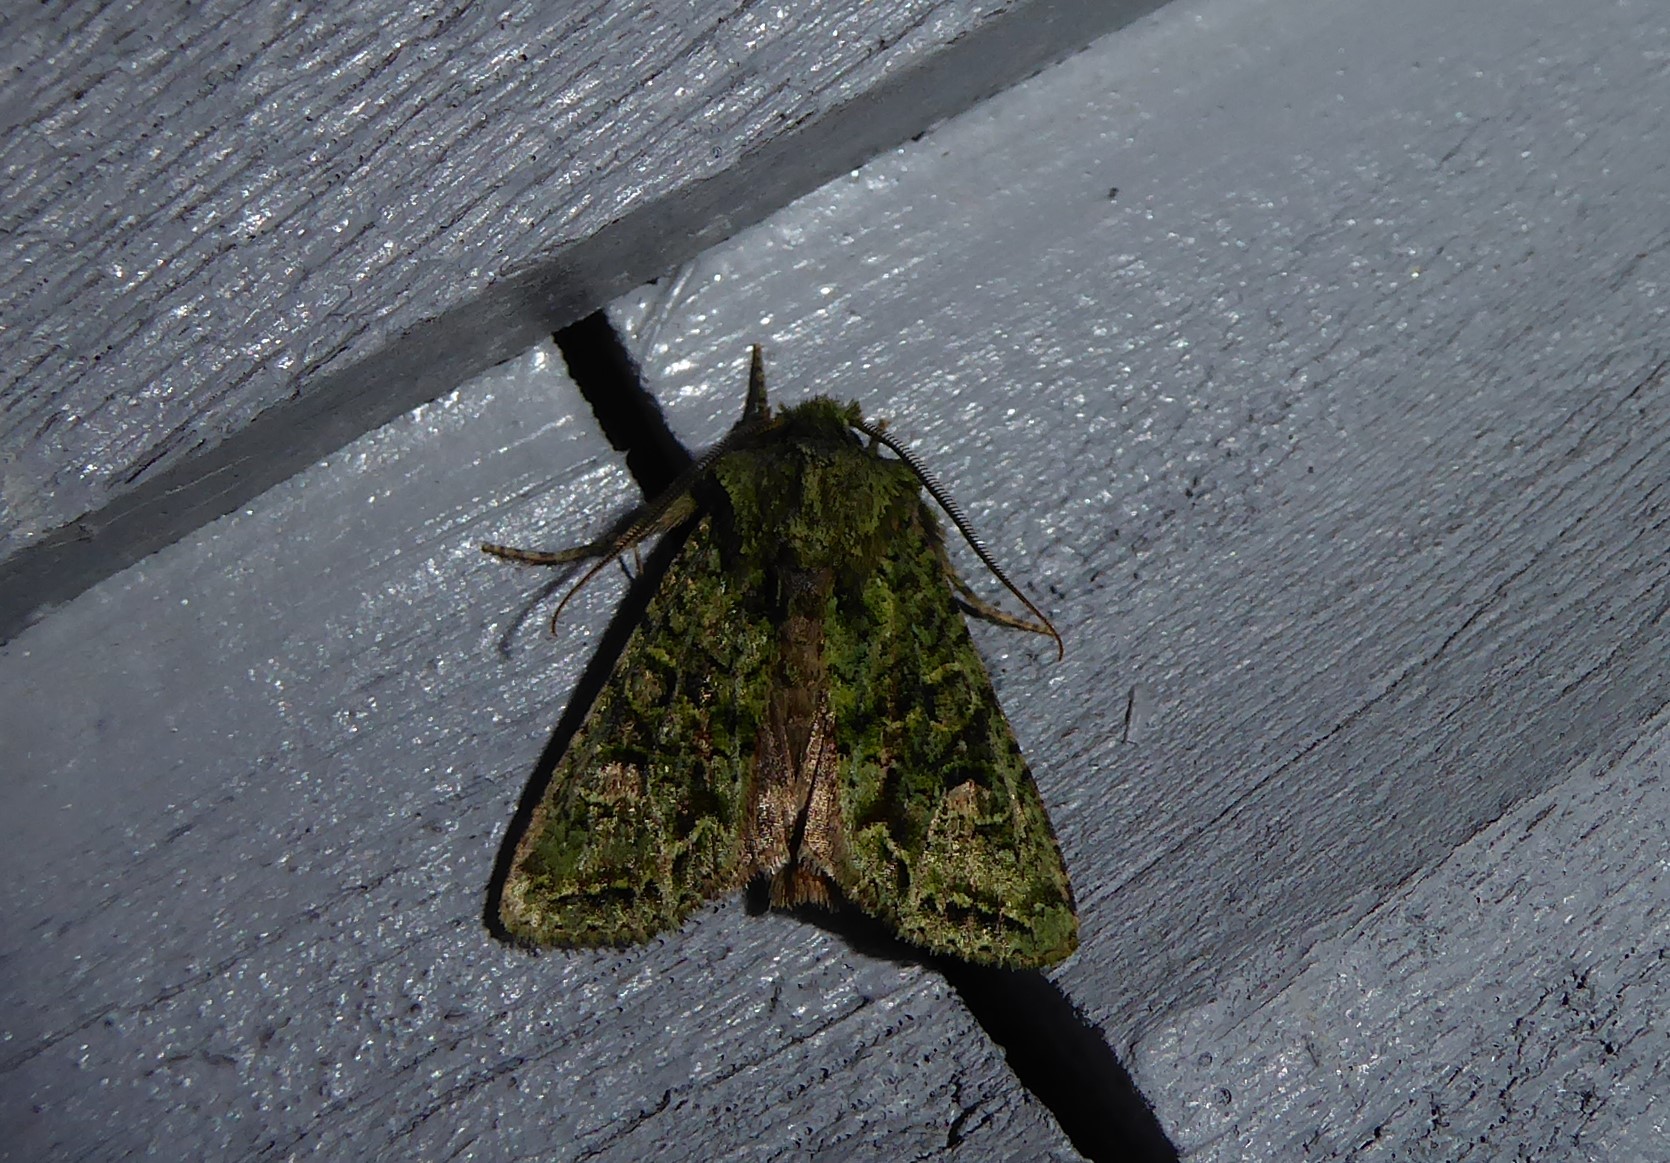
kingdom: Animalia
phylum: Arthropoda
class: Insecta
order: Lepidoptera
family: Noctuidae
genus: Ichneutica
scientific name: Ichneutica
